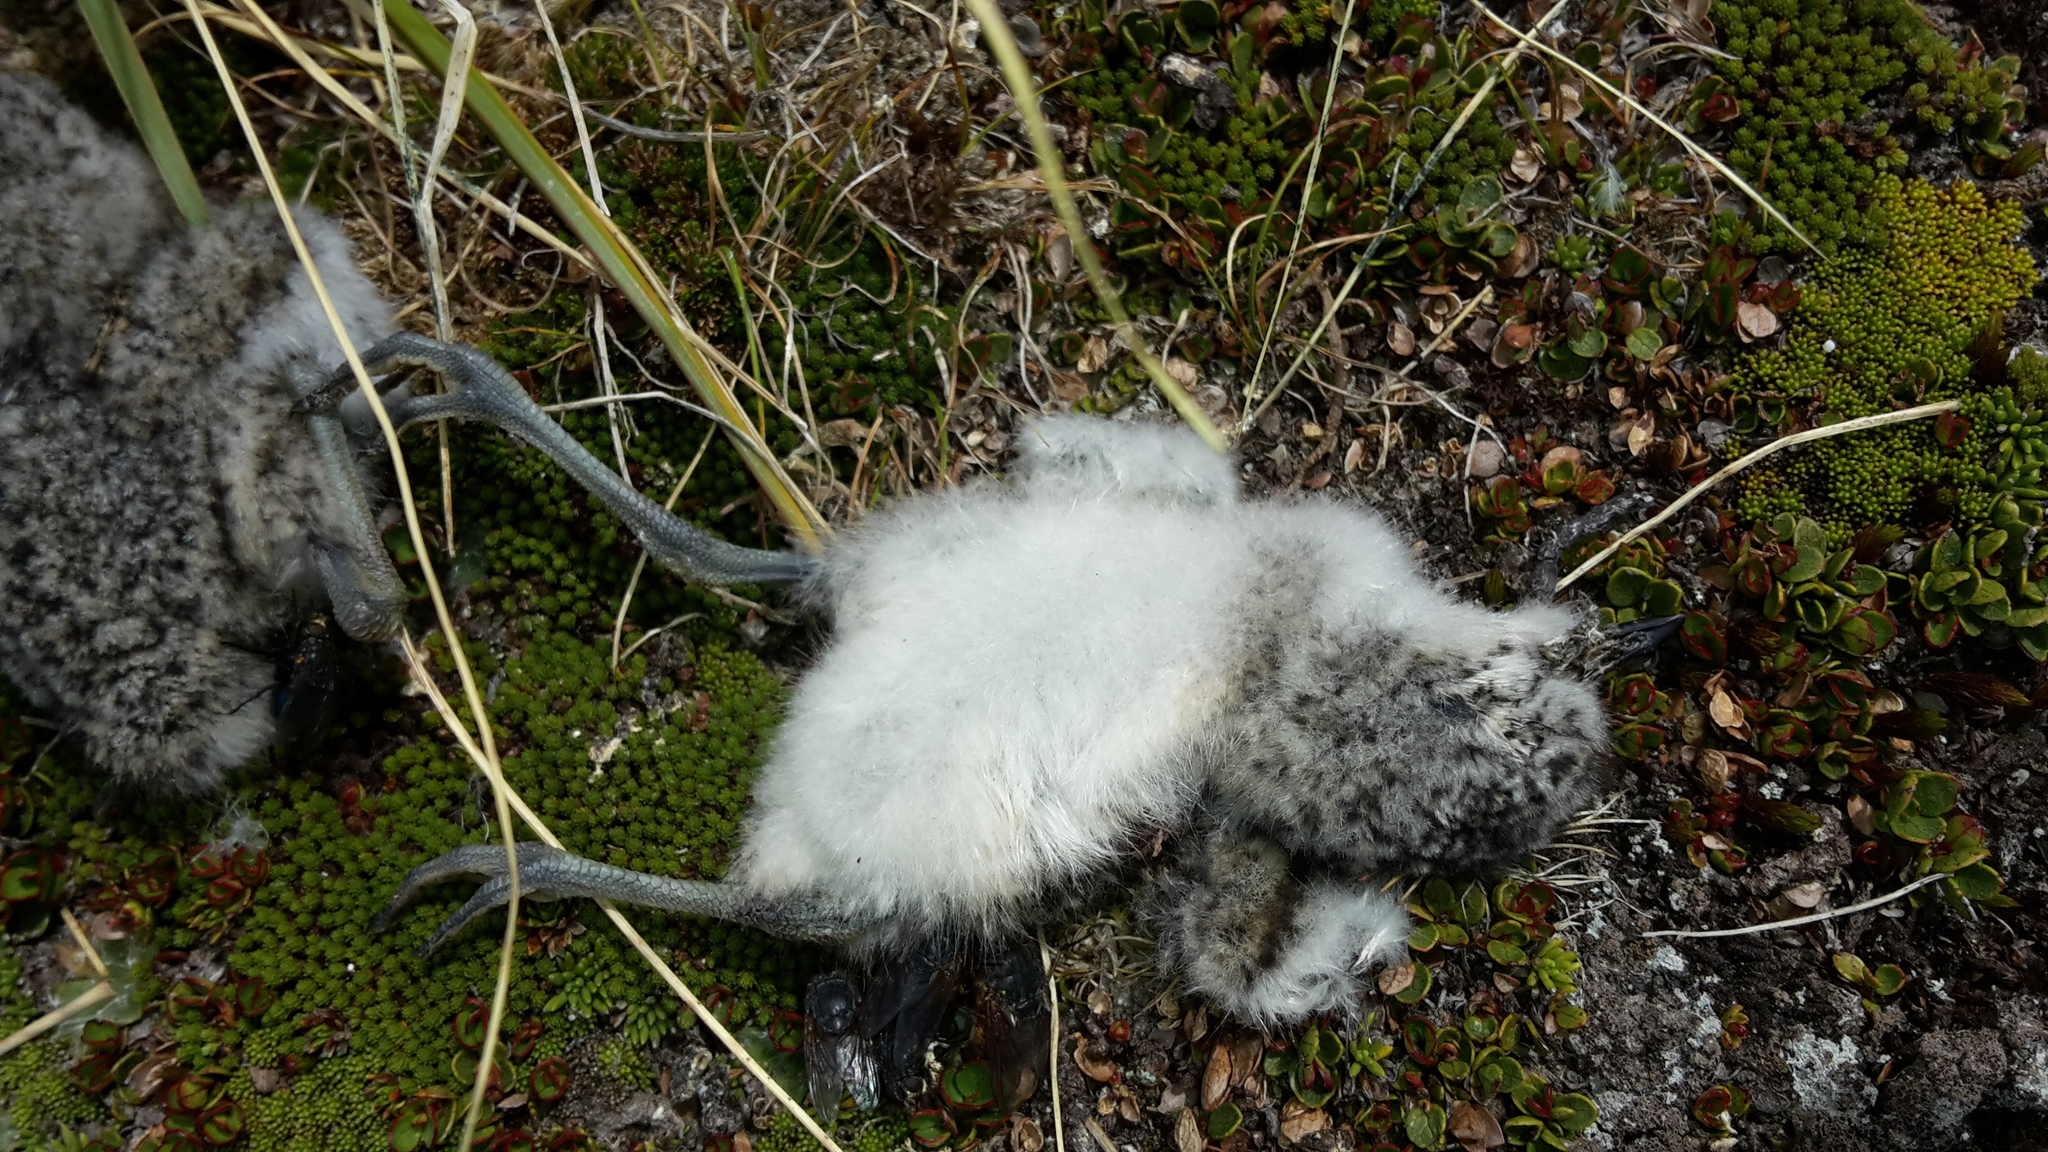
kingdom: Animalia
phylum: Chordata
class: Aves
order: Charadriiformes
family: Charadriidae
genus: Anarhynchus
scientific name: Anarhynchus
